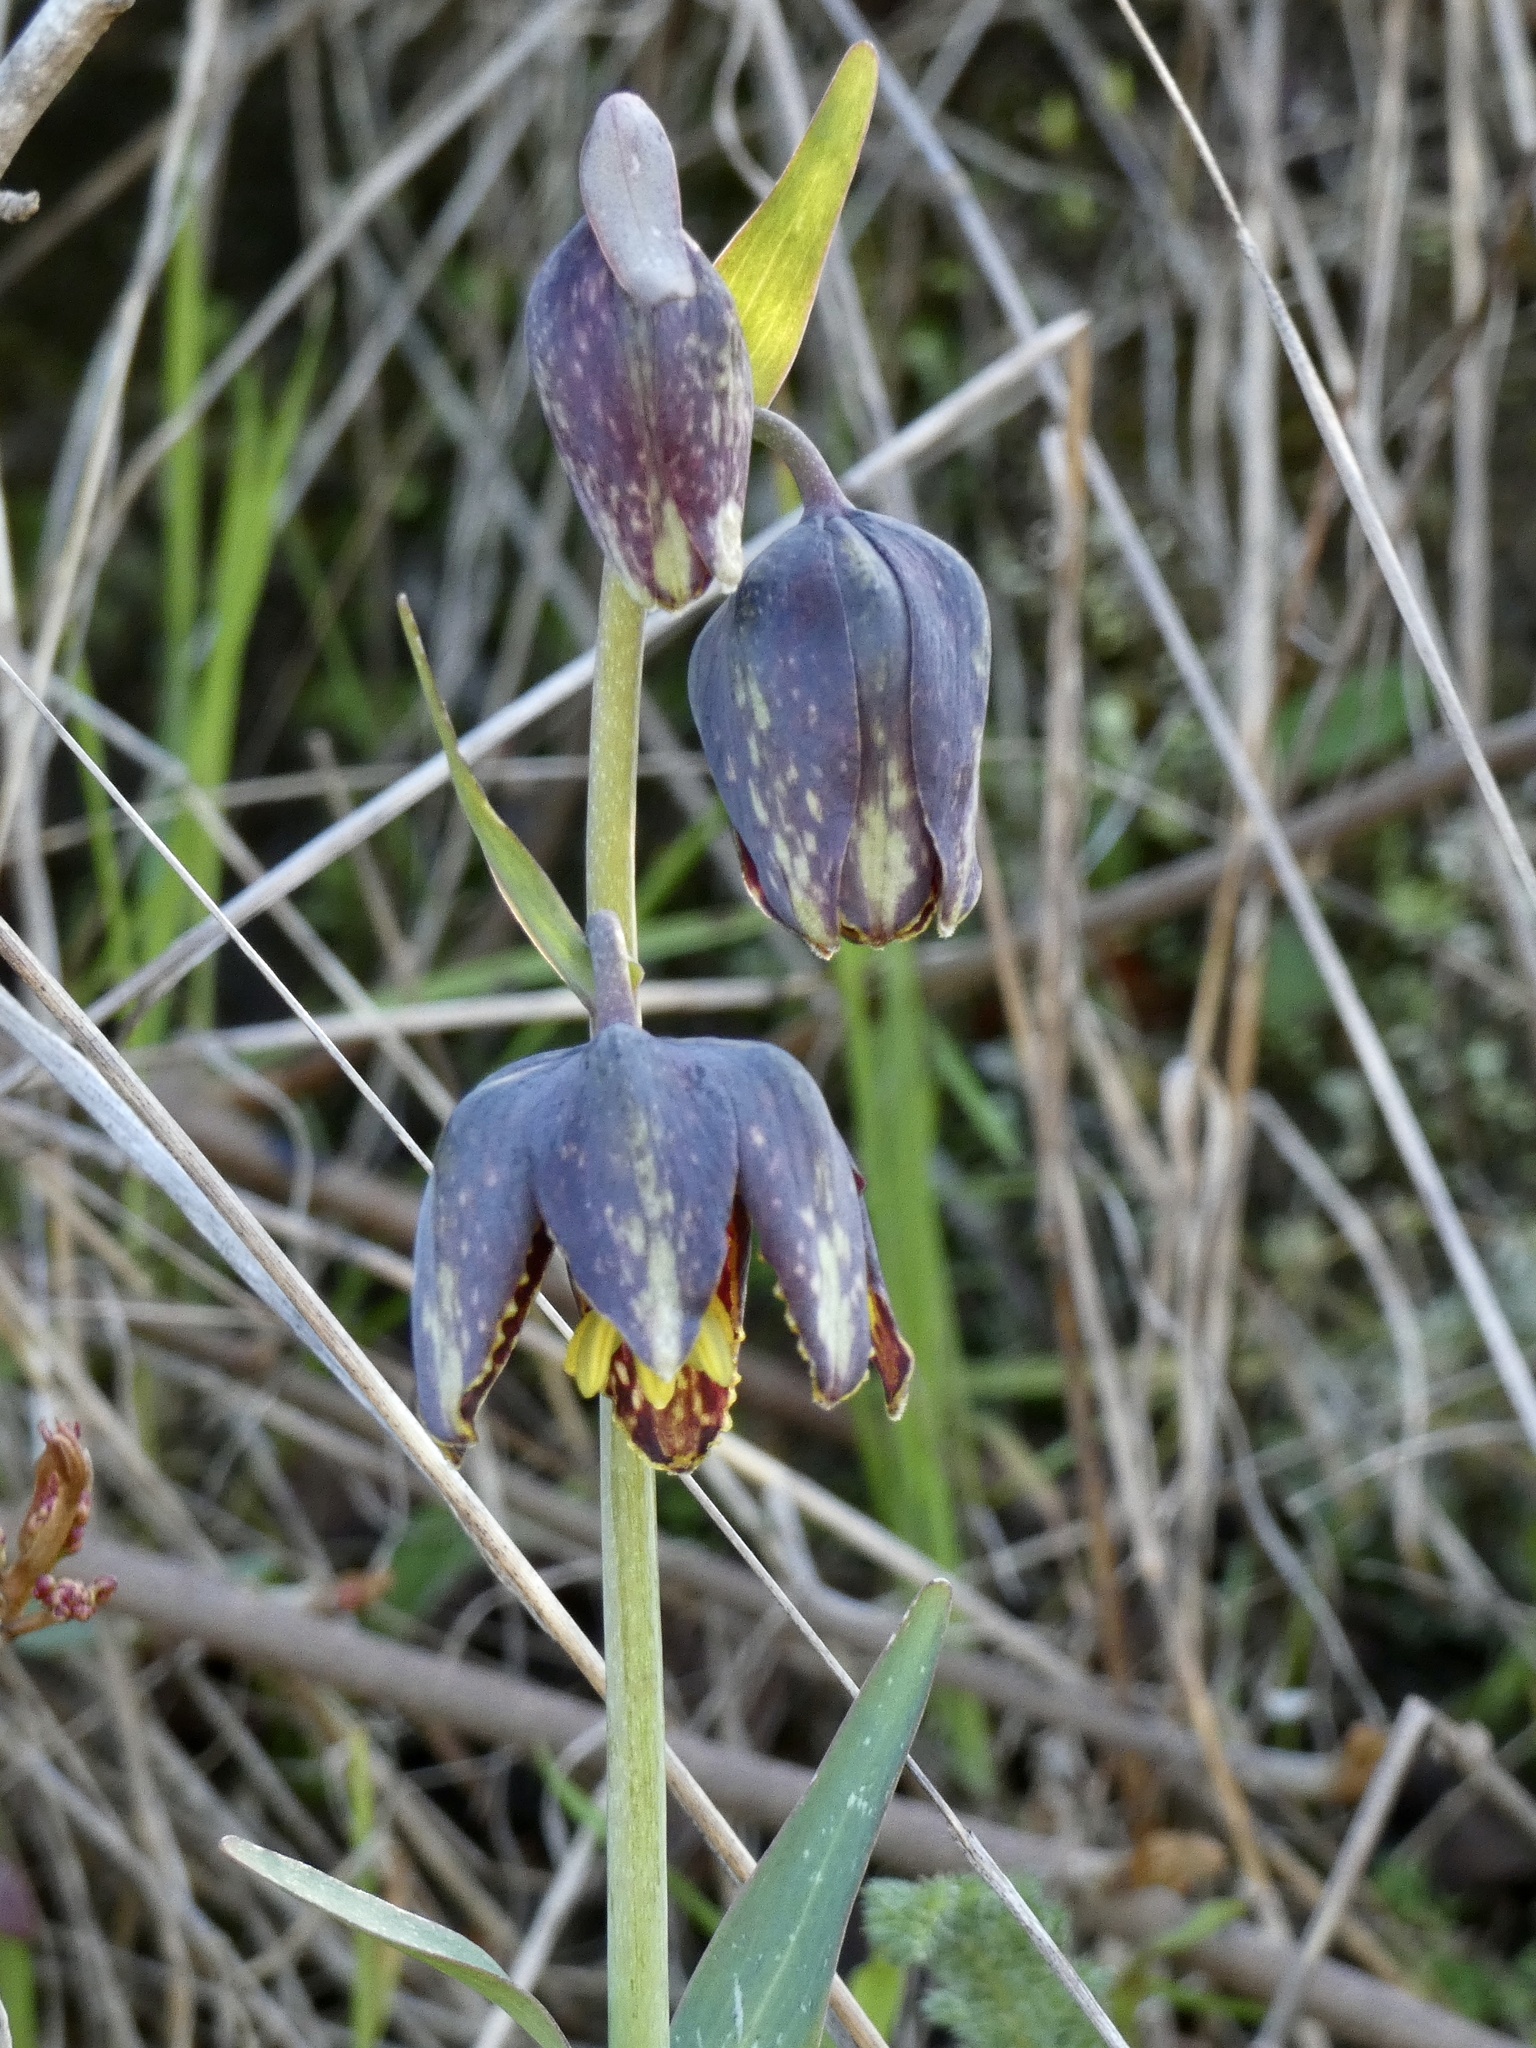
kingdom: Plantae
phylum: Tracheophyta
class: Liliopsida
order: Liliales
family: Liliaceae
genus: Fritillaria
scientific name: Fritillaria affinis
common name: Ojai fritillary
